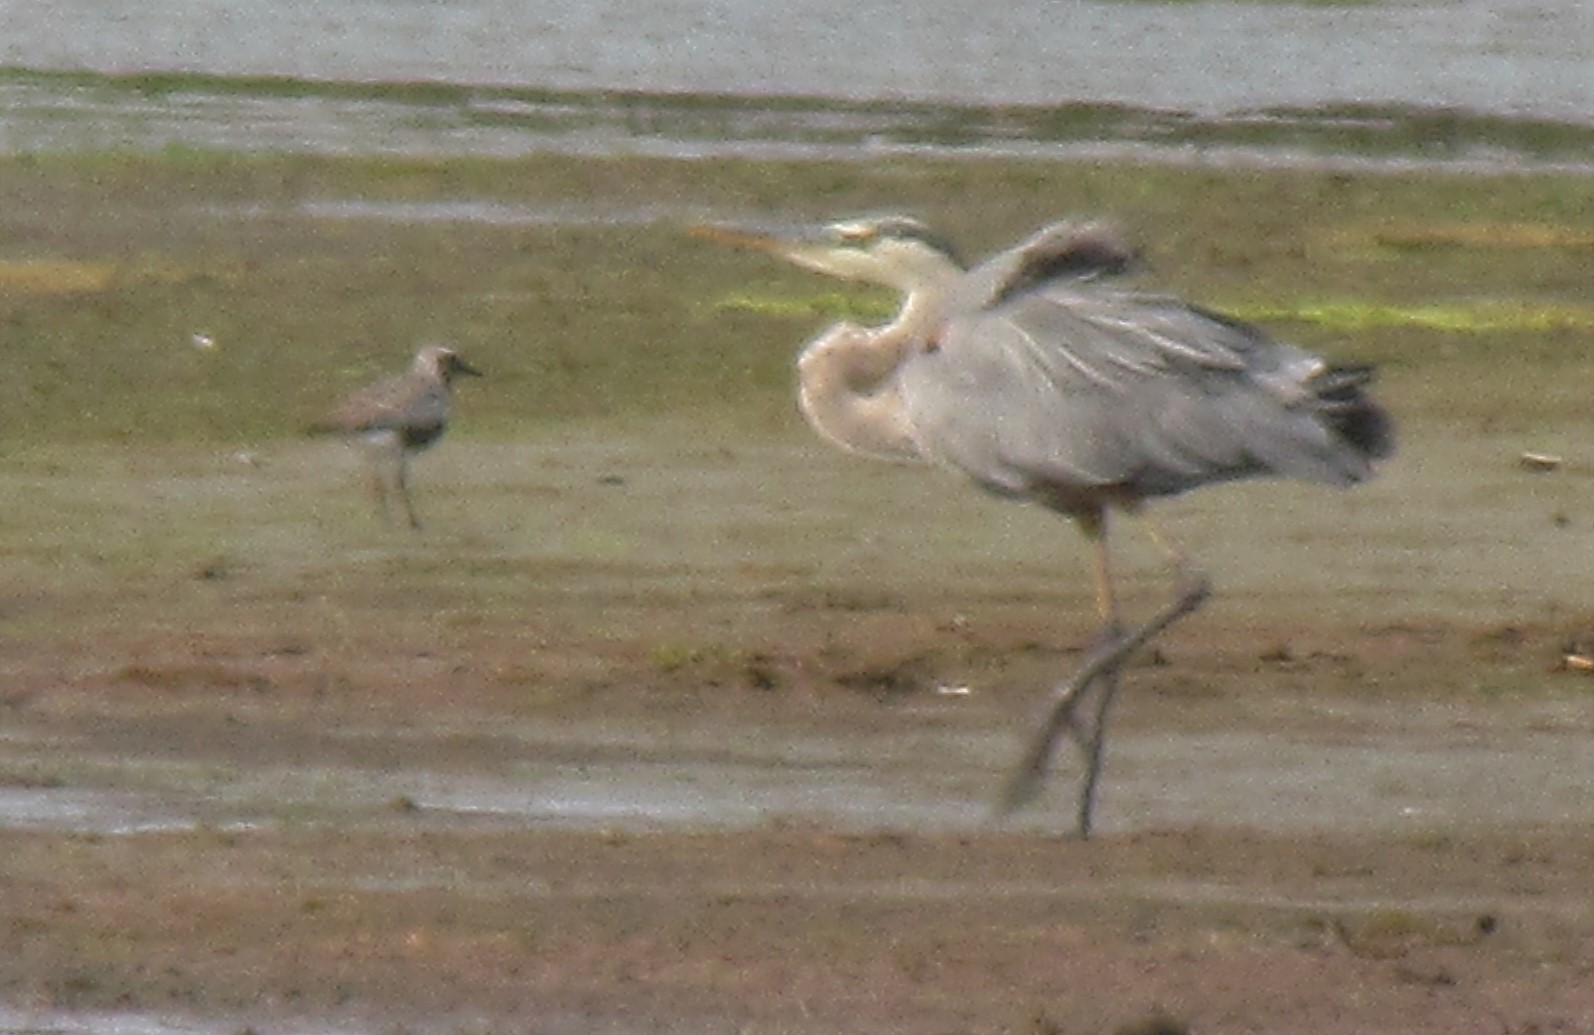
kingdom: Animalia
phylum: Chordata
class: Aves
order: Pelecaniformes
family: Ardeidae
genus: Ardea
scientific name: Ardea herodias
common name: Great blue heron
